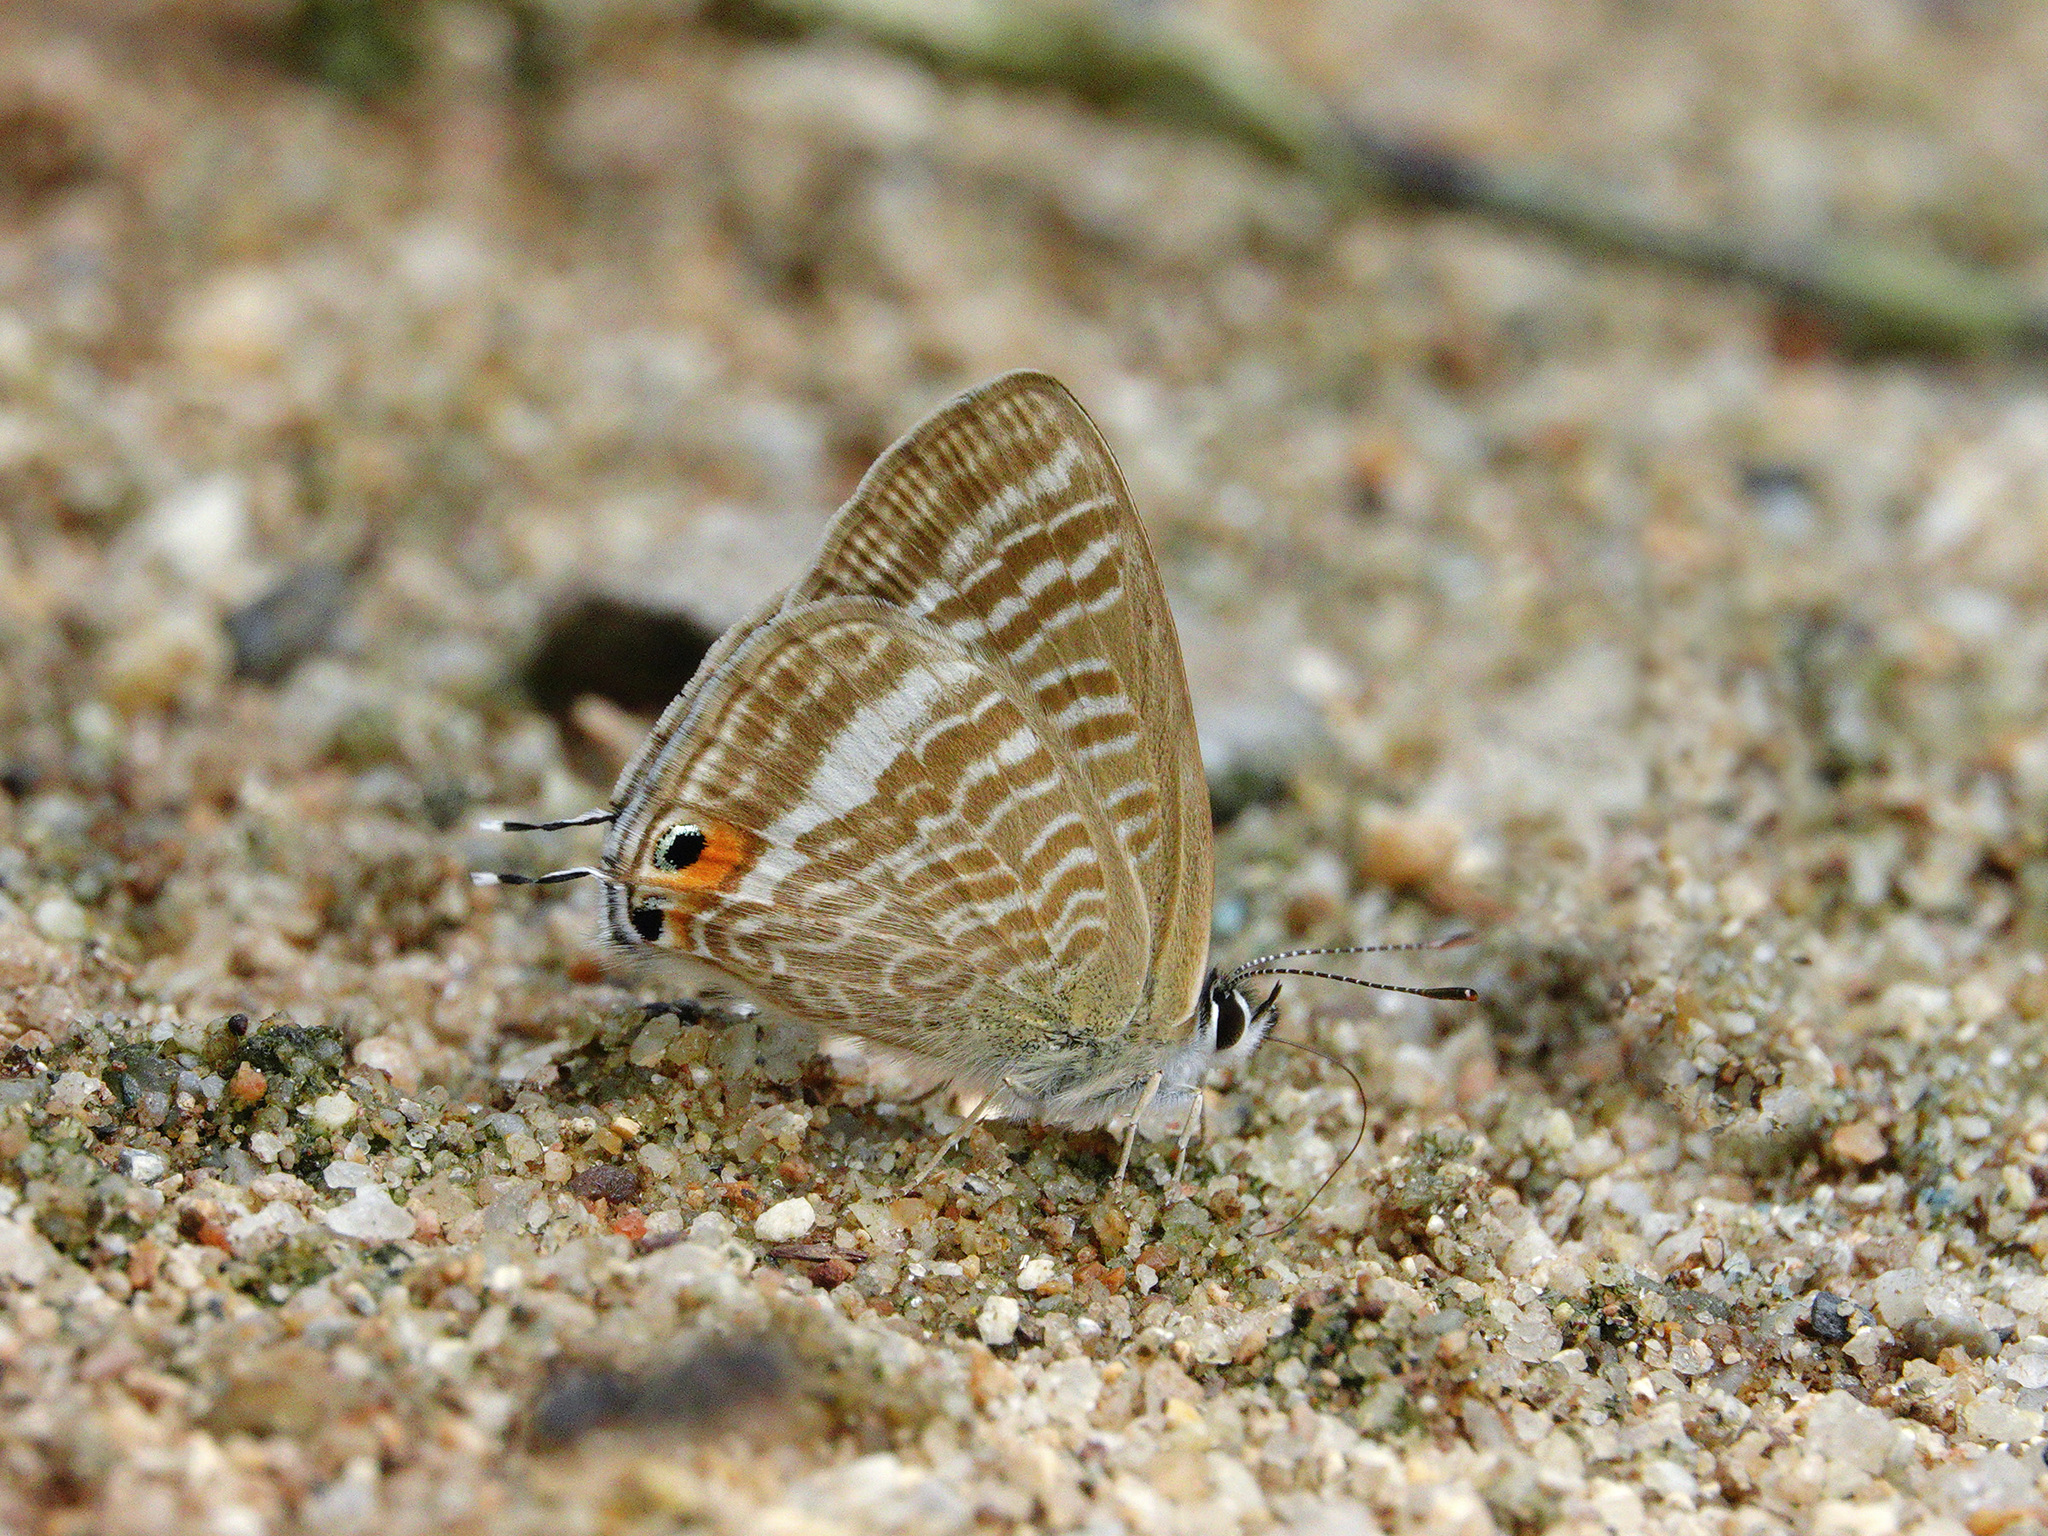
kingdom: Animalia
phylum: Arthropoda
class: Insecta
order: Lepidoptera
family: Lycaenidae
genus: Lampides
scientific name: Lampides boeticus
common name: Long-tailed blue
